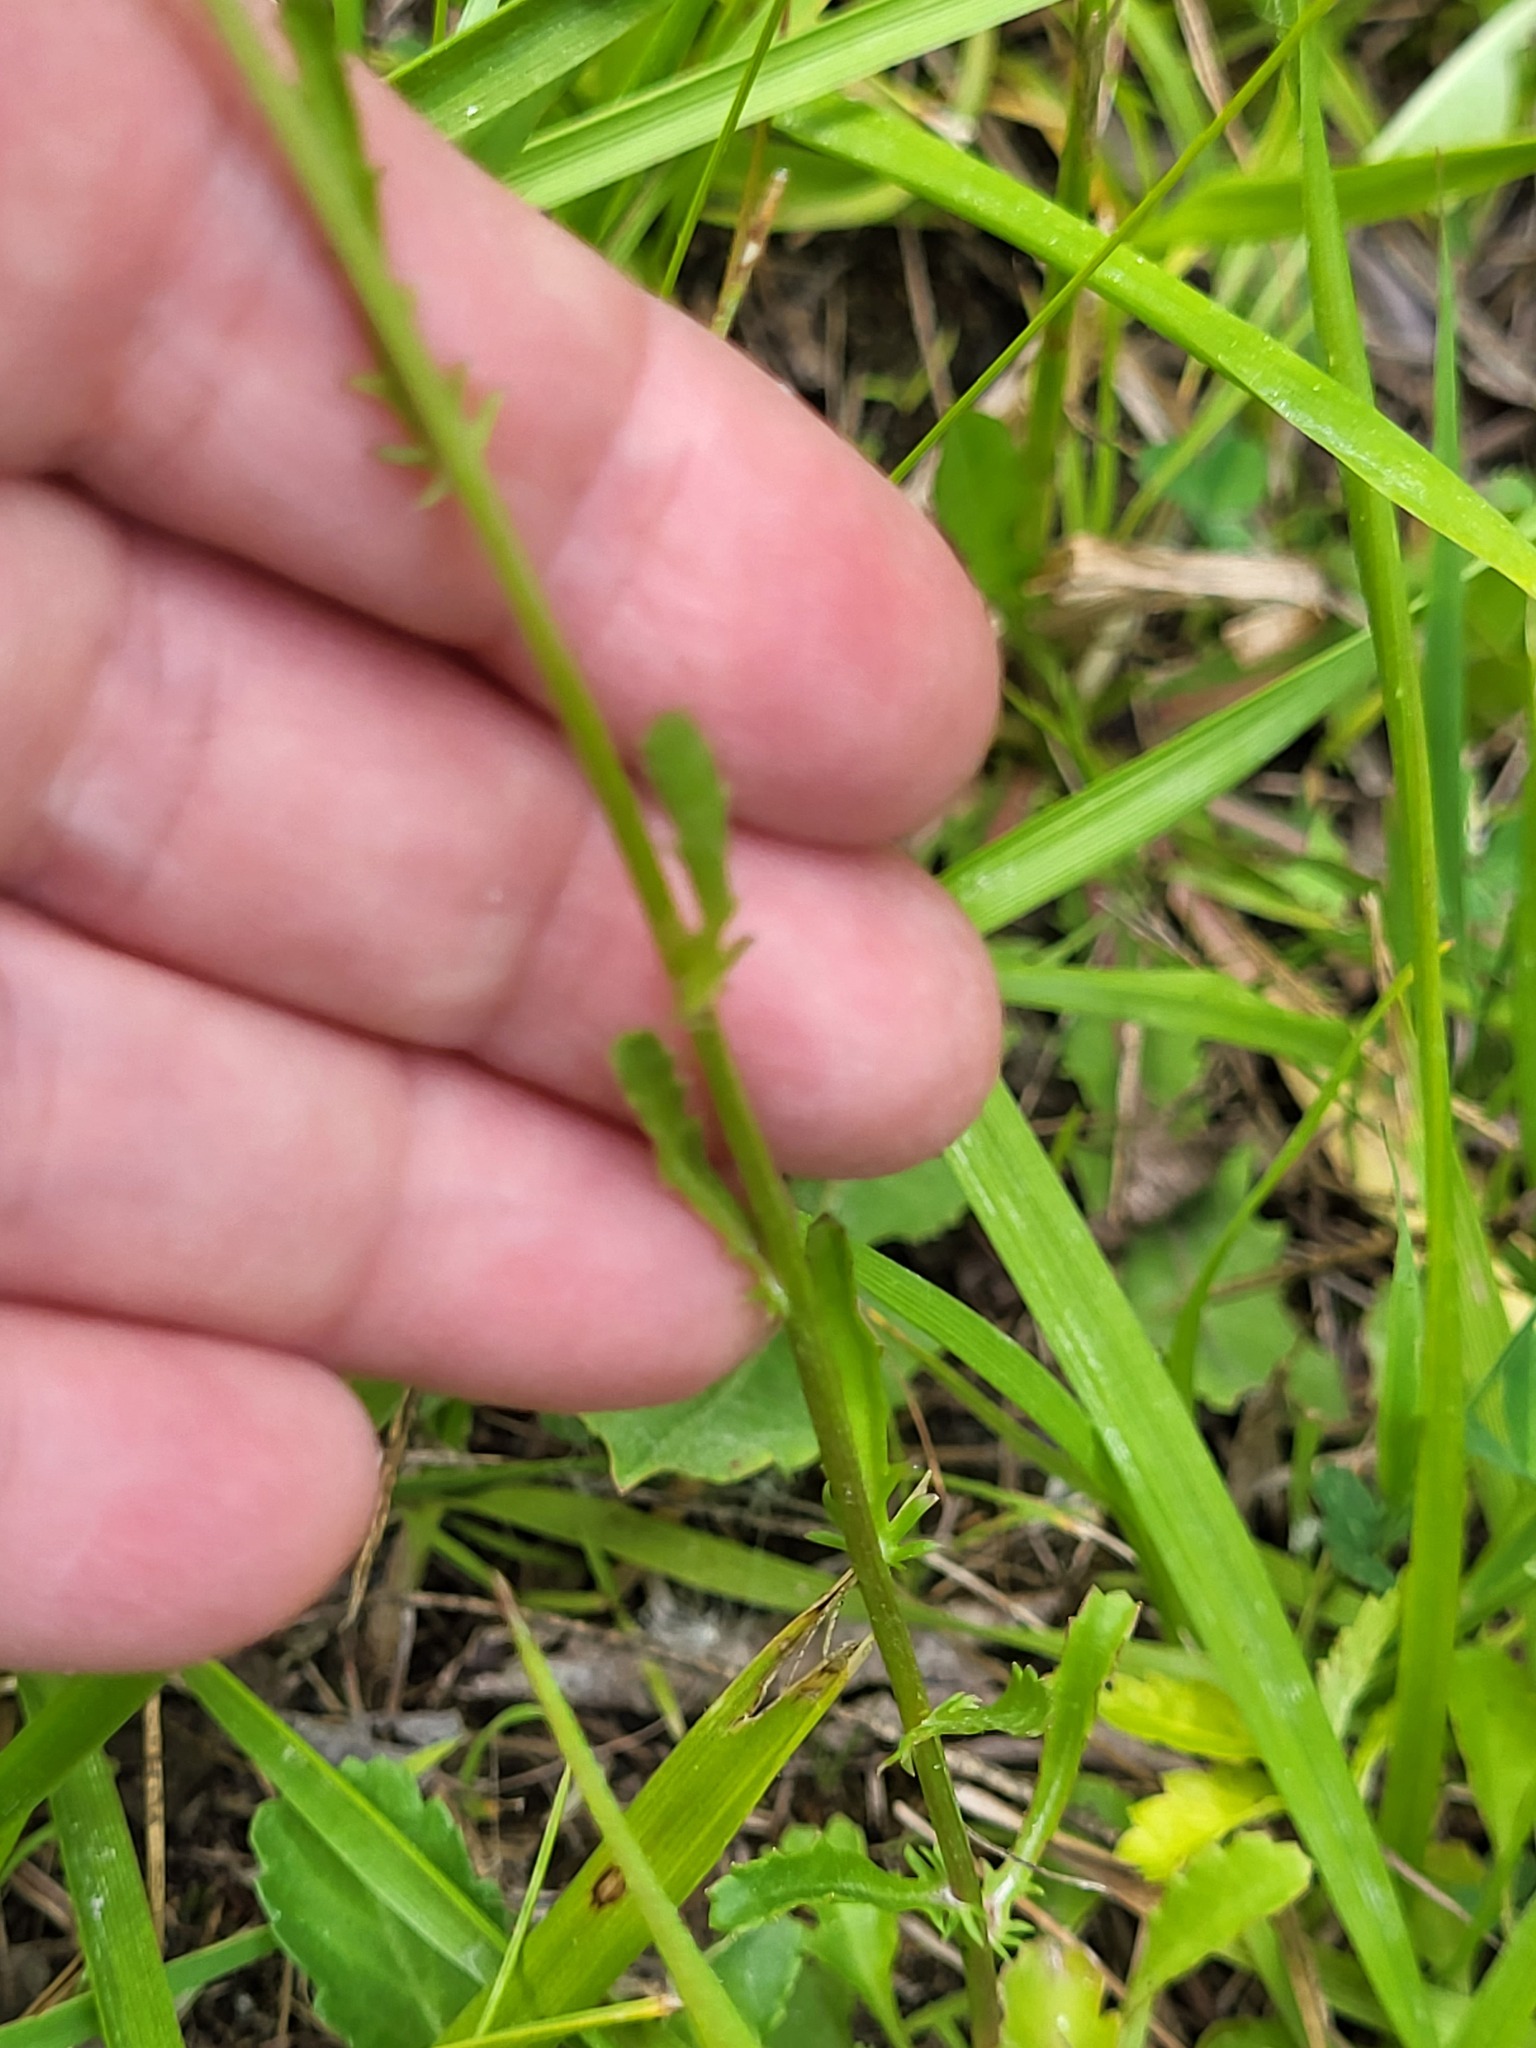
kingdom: Plantae
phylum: Tracheophyta
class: Magnoliopsida
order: Asterales
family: Asteraceae
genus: Leucanthemum
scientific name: Leucanthemum vulgare
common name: Oxeye daisy
